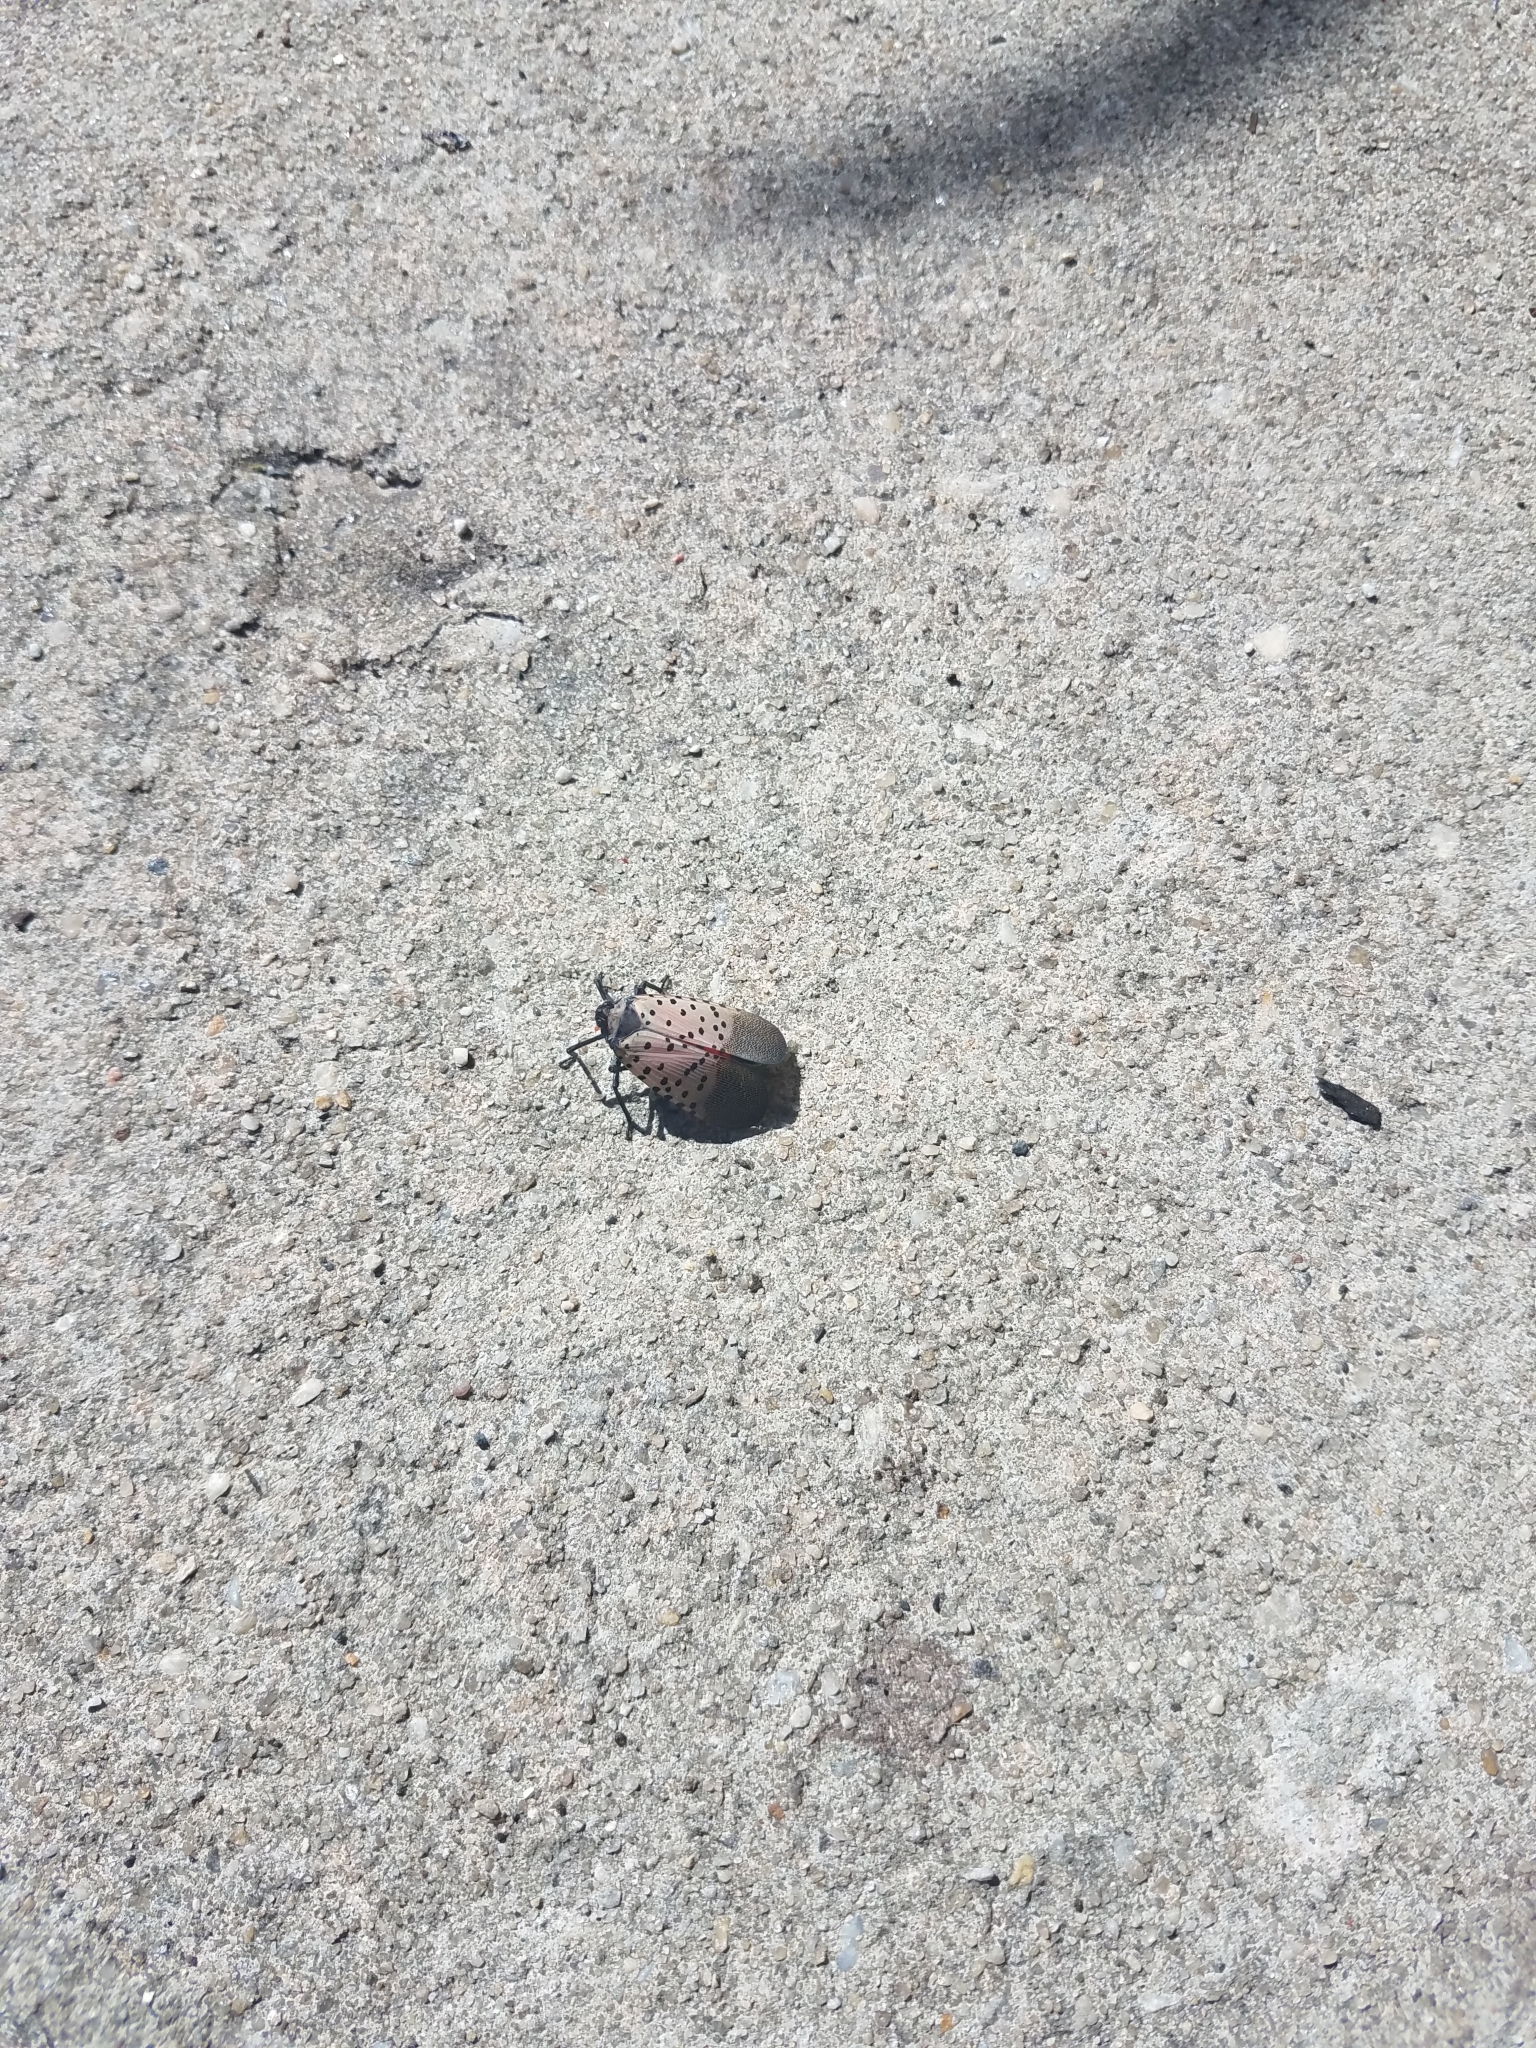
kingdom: Animalia
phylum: Arthropoda
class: Insecta
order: Hemiptera
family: Fulgoridae
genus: Lycorma
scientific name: Lycorma delicatula
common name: Spotted lanternfly
